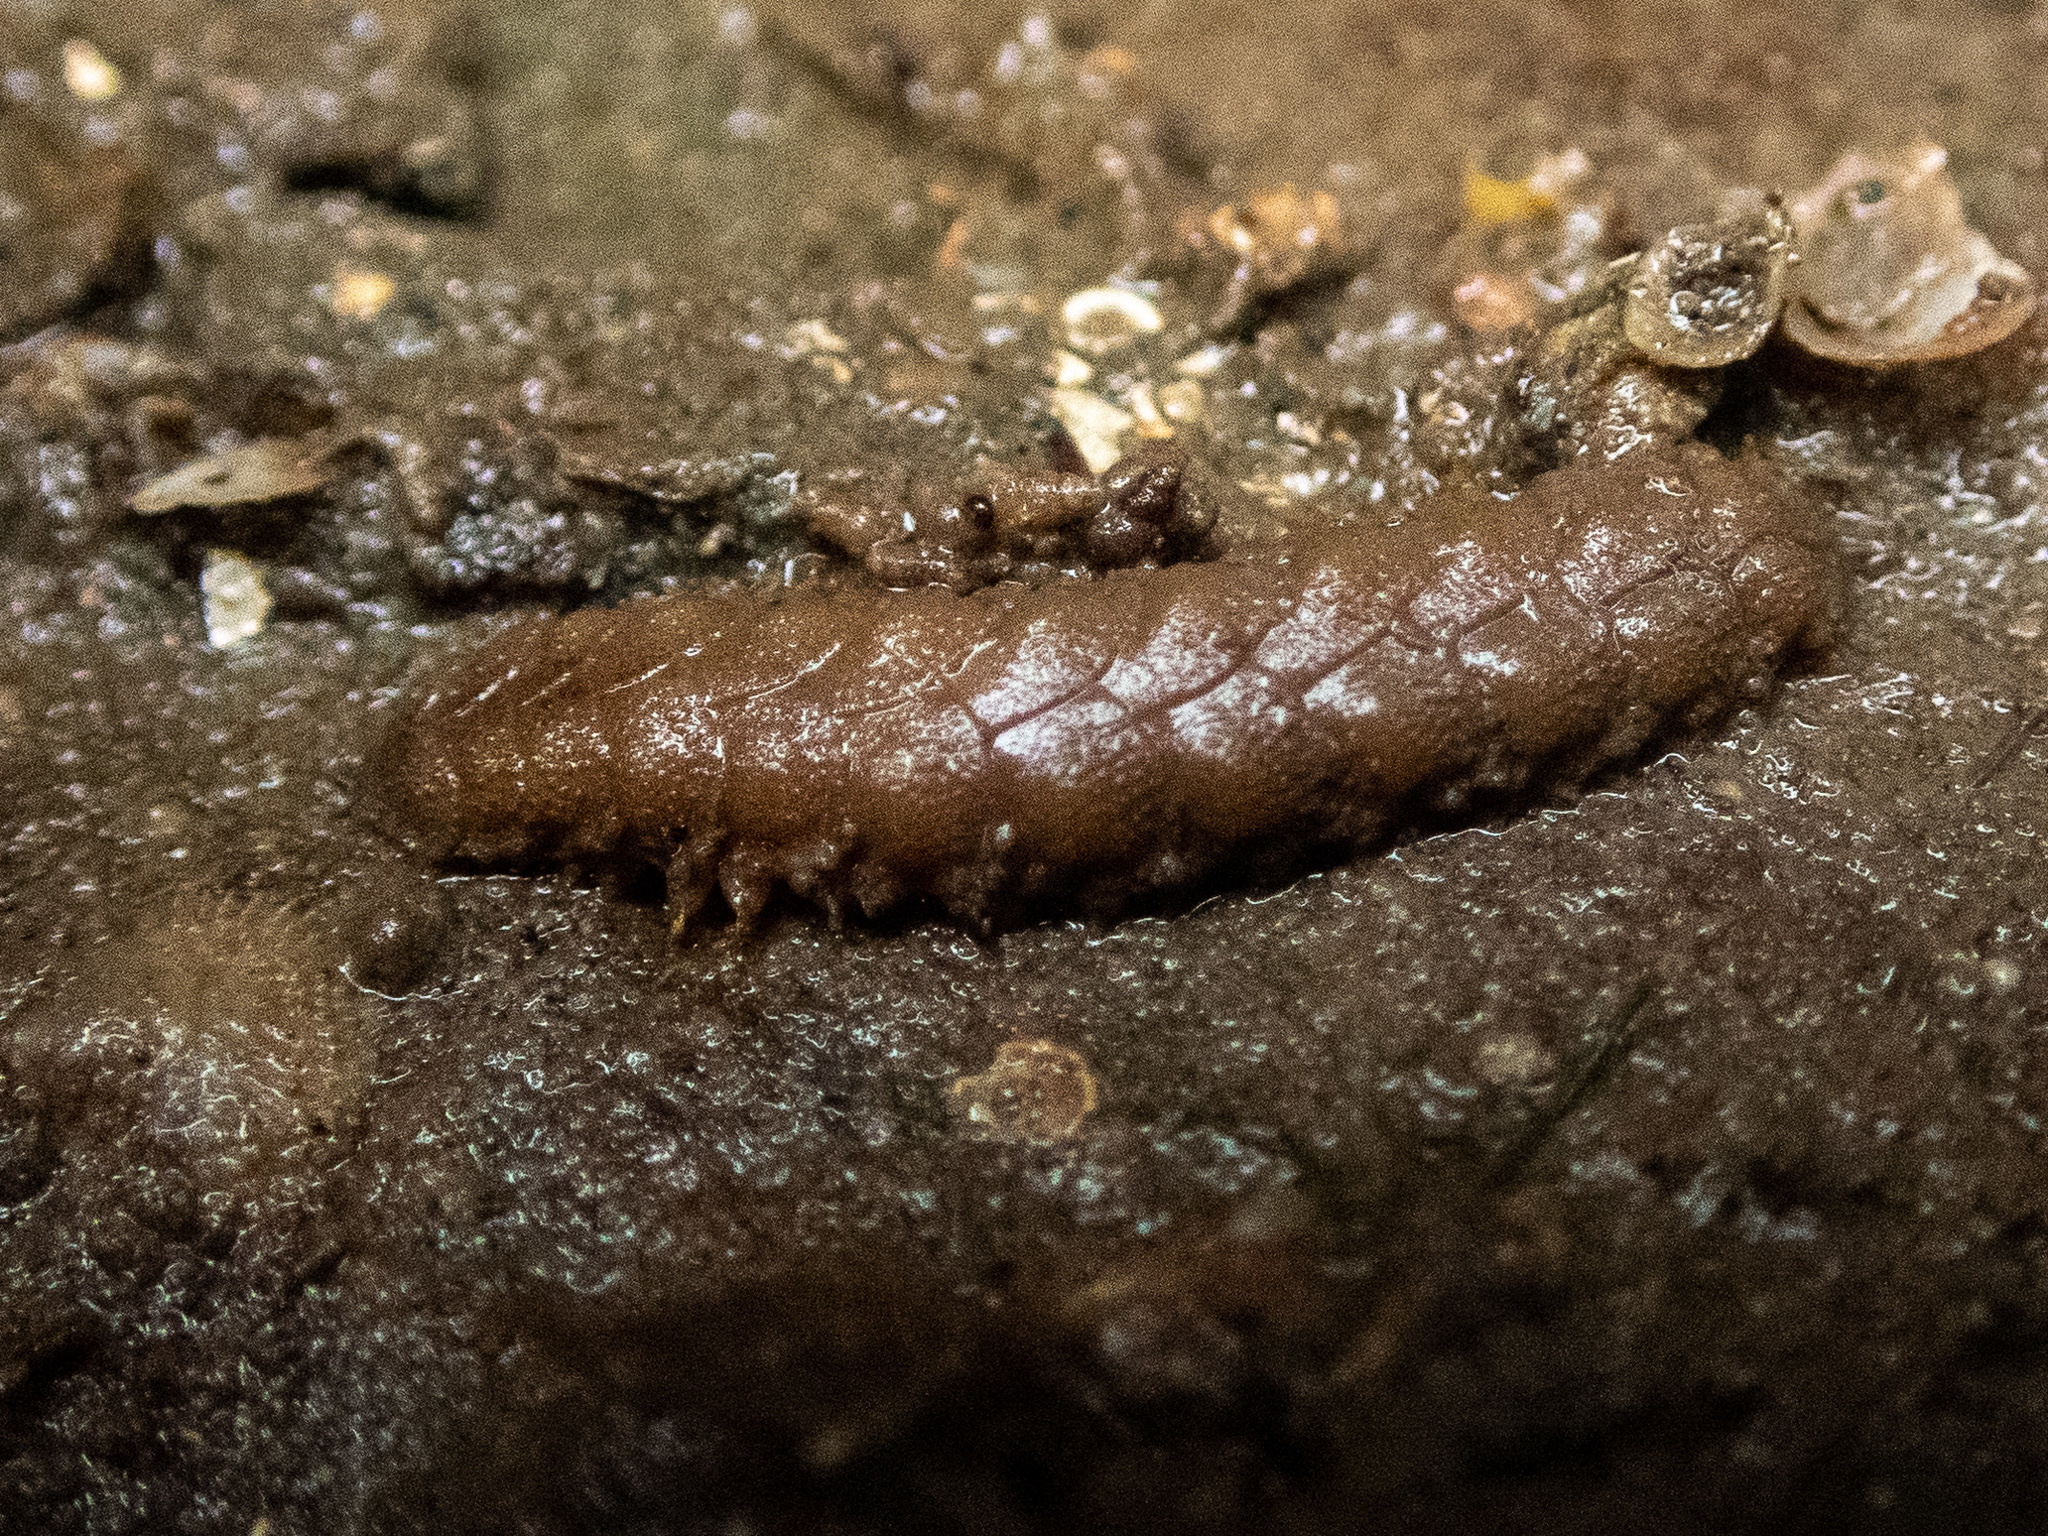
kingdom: Animalia
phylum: Annelida
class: Polychaeta
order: Phyllodocida
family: Polynoidae
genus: Lepidonotus
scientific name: Lepidonotus squamatus
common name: Twelve-scaled worm
